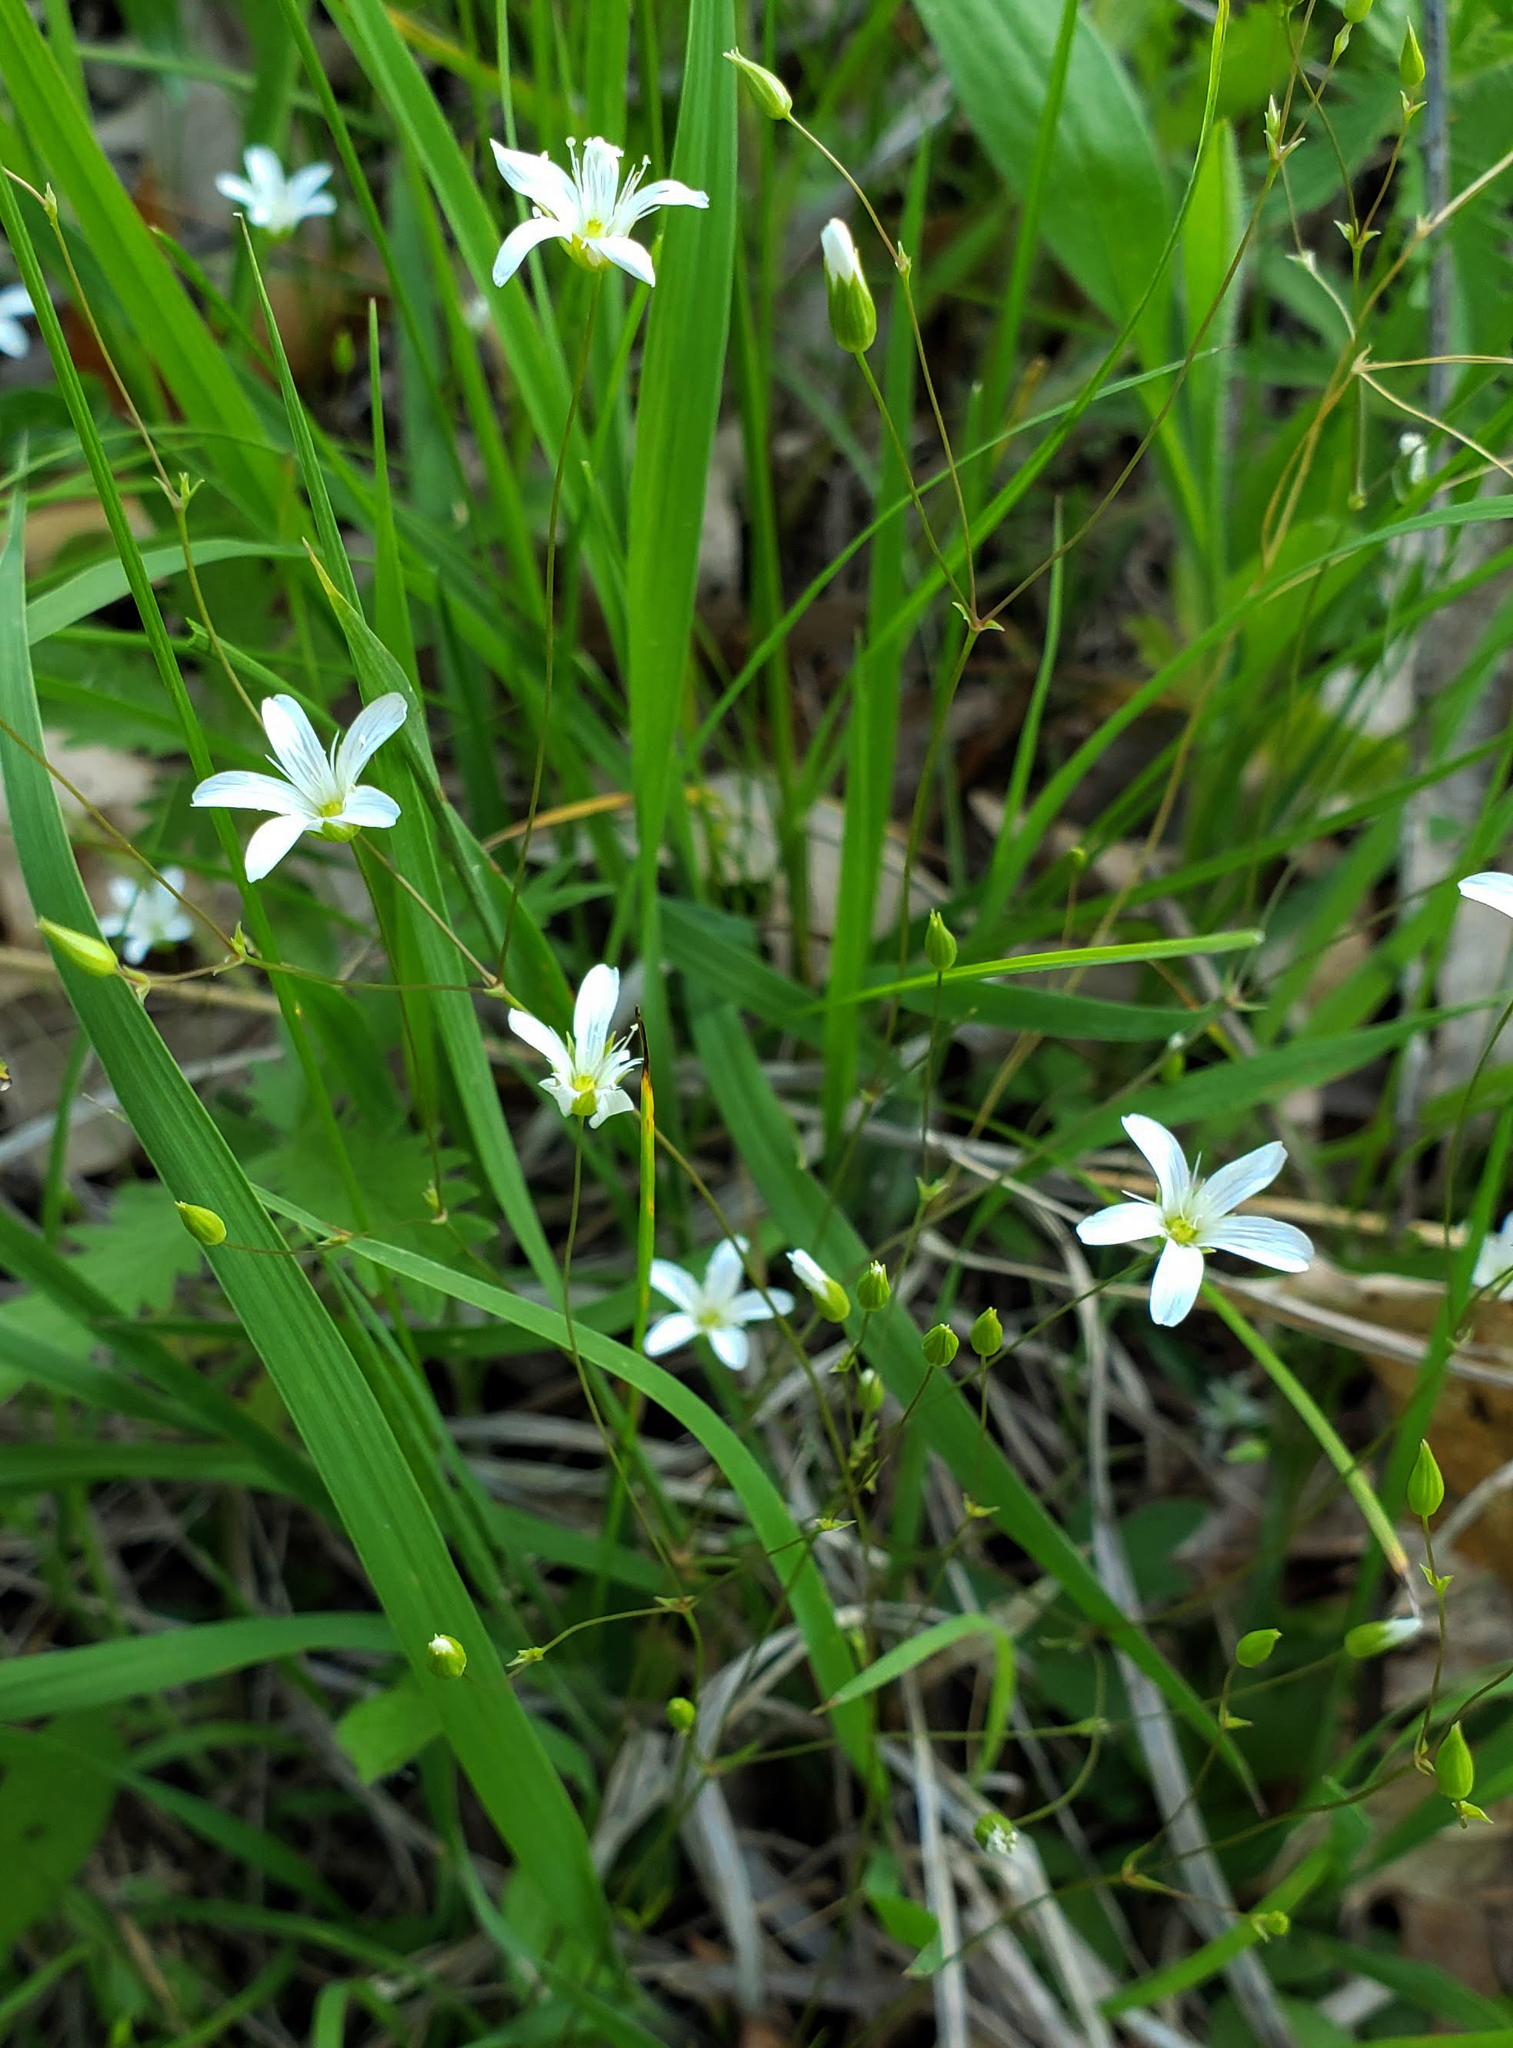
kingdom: Plantae
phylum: Tracheophyta
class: Magnoliopsida
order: Caryophyllales
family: Caryophyllaceae
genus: Sabulina
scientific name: Sabulina michauxii
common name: Michaux's stitchwort
